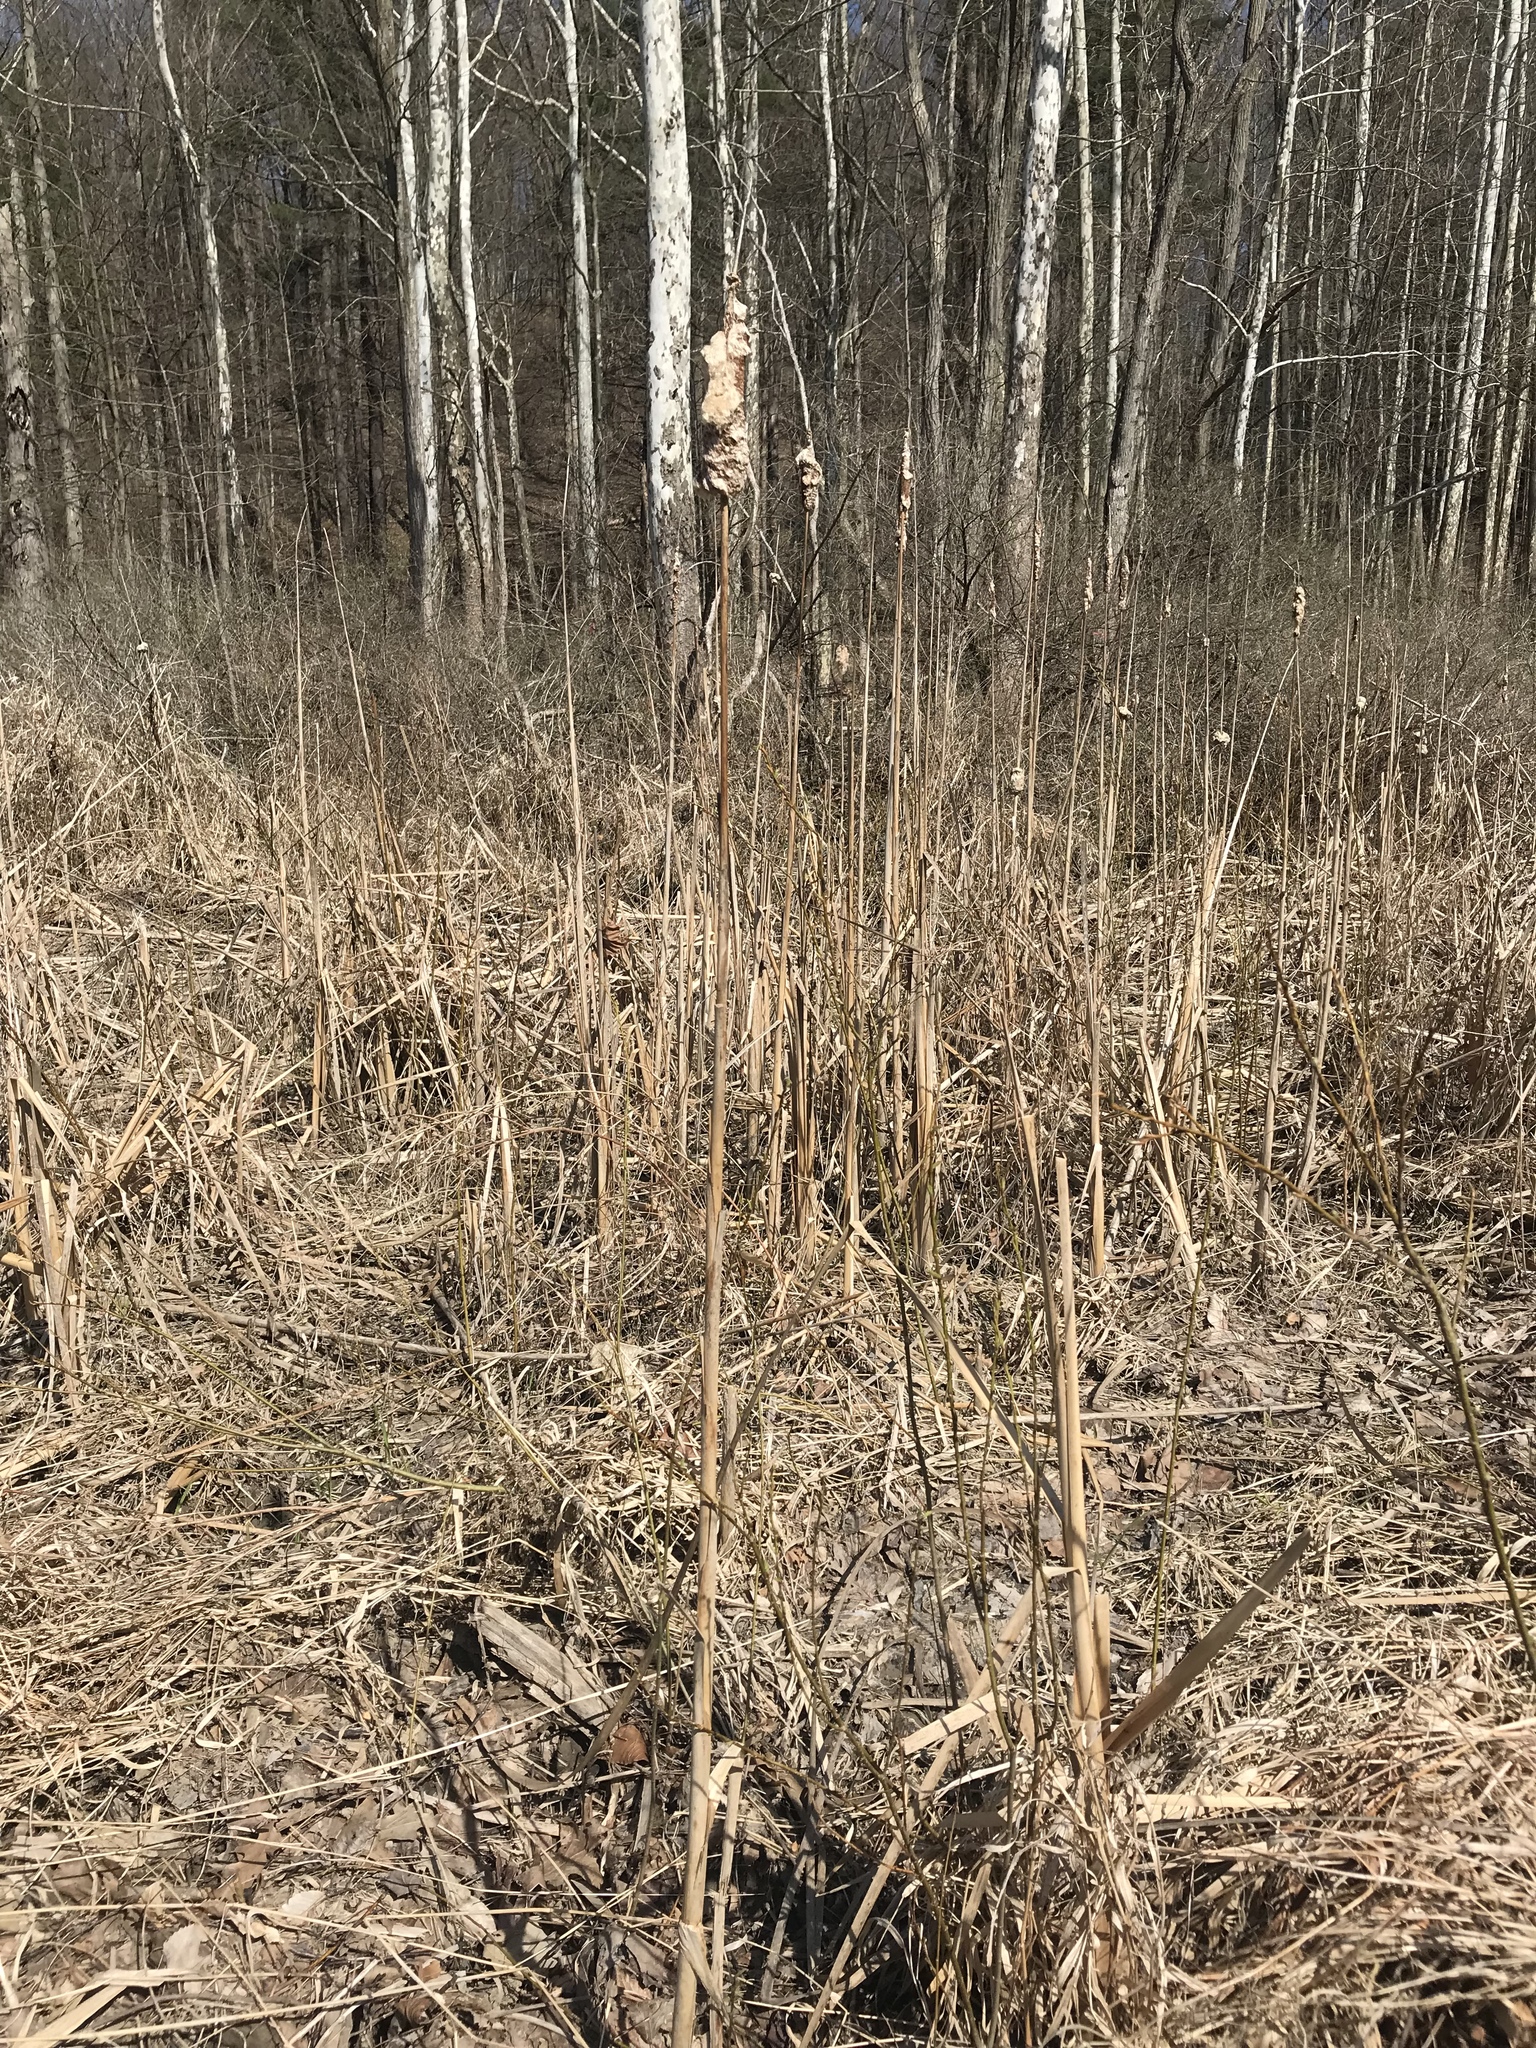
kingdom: Plantae
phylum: Tracheophyta
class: Liliopsida
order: Poales
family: Typhaceae
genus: Typha
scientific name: Typha
